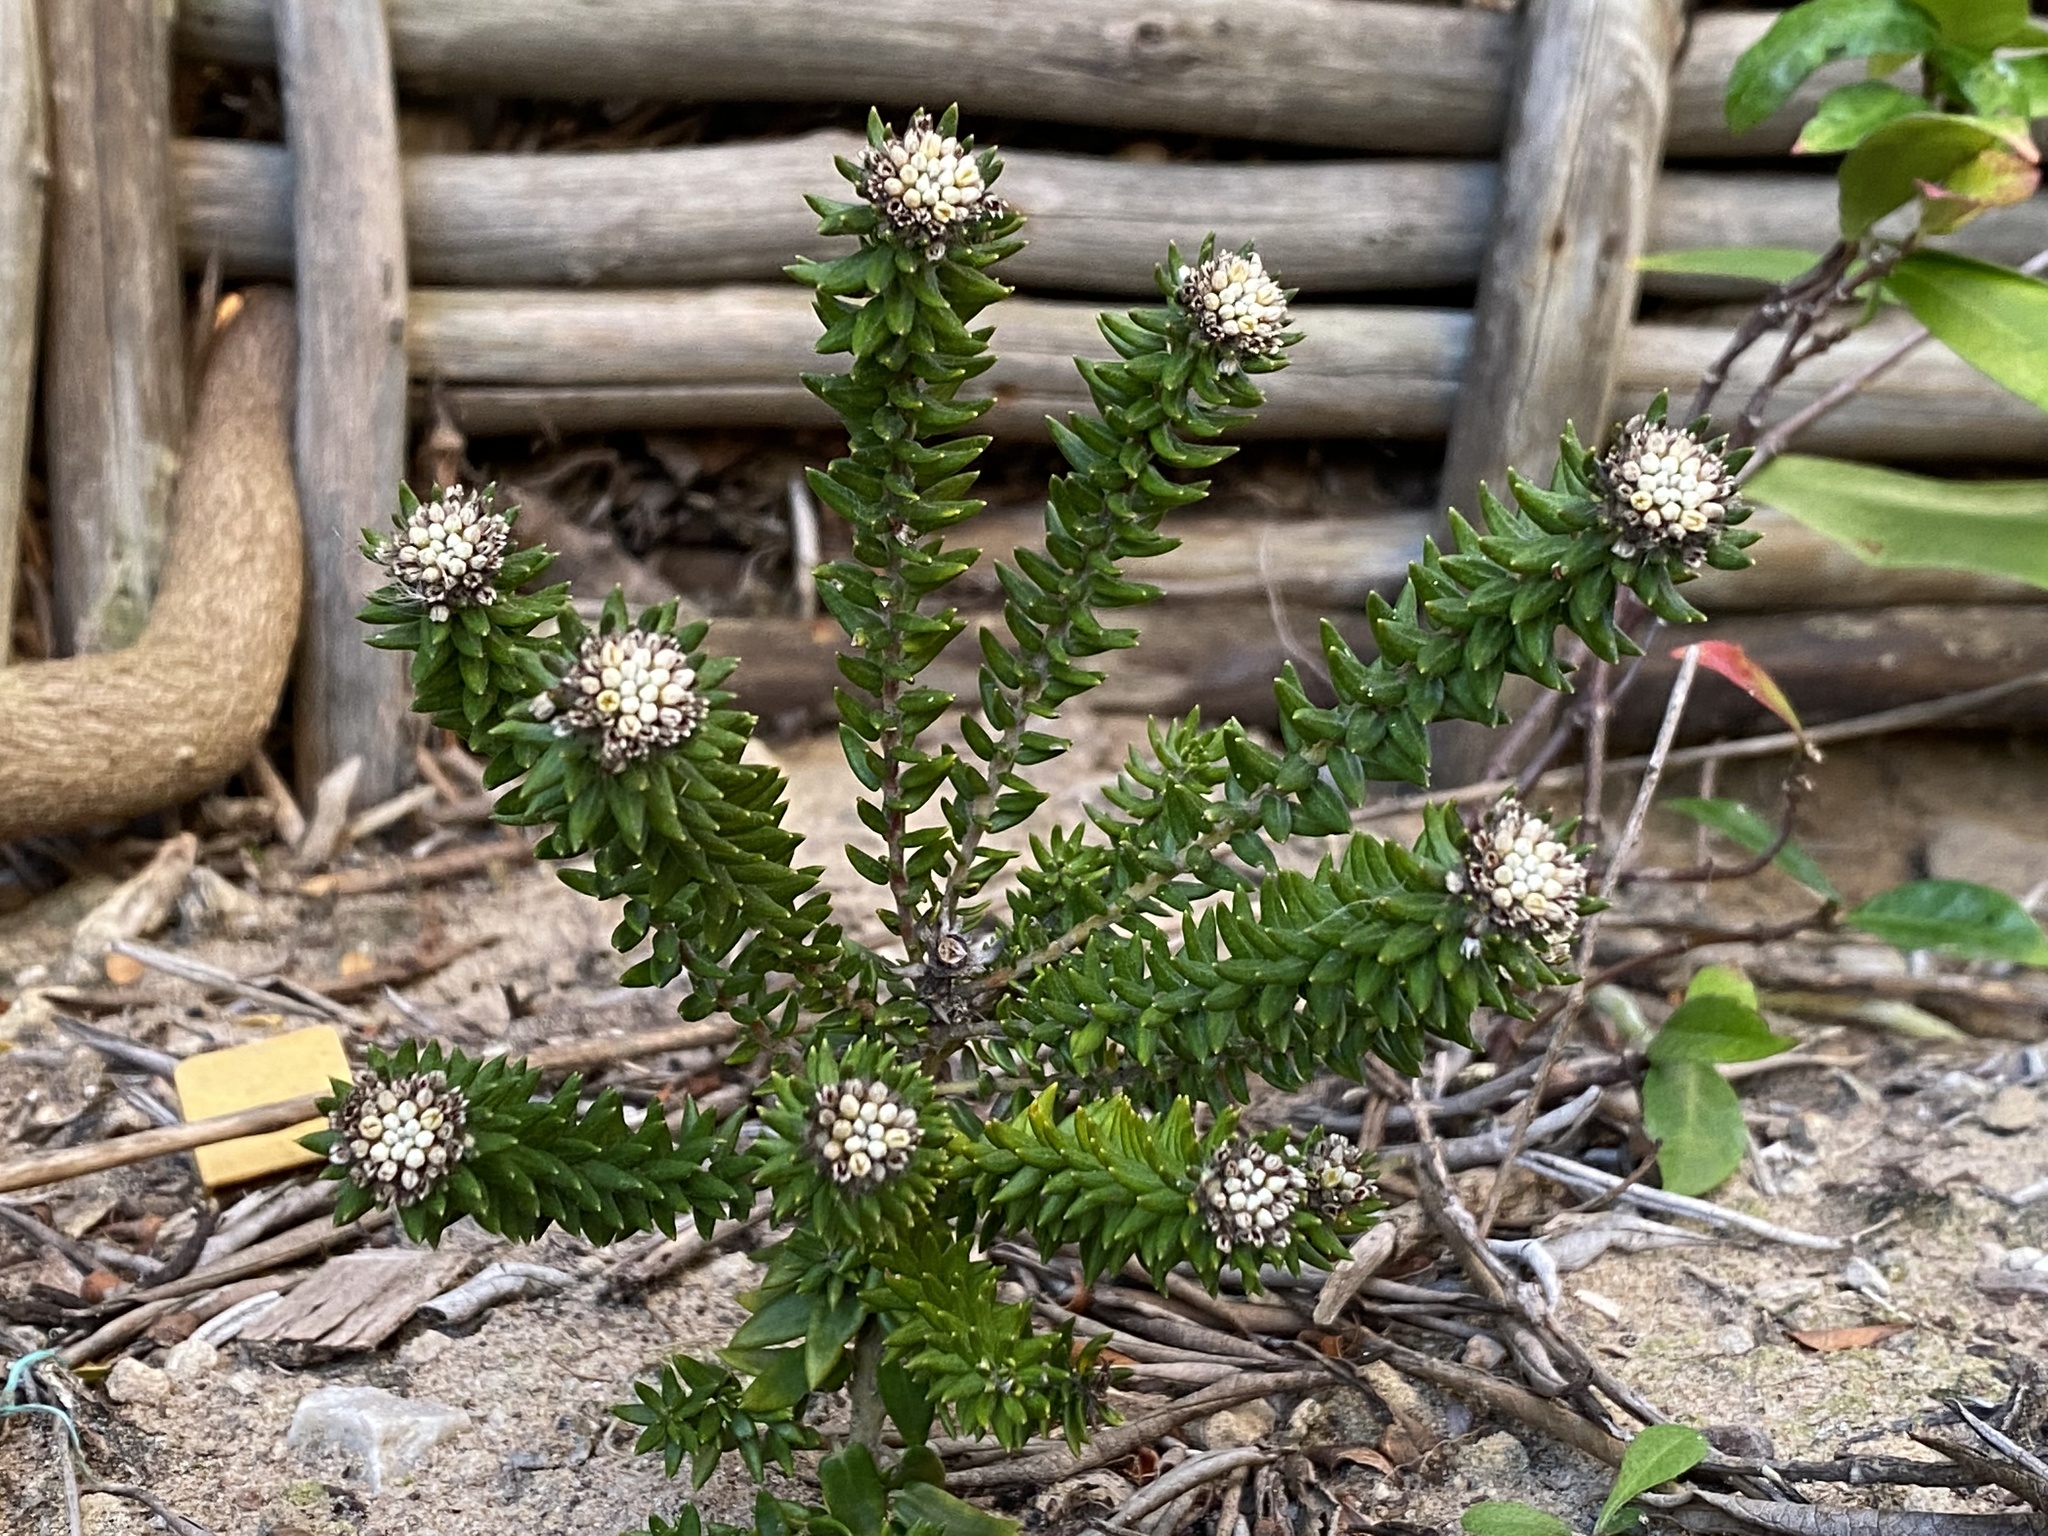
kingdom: Plantae
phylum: Tracheophyta
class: Magnoliopsida
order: Rosales
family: Rhamnaceae
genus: Phylica
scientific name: Phylica litoralis
